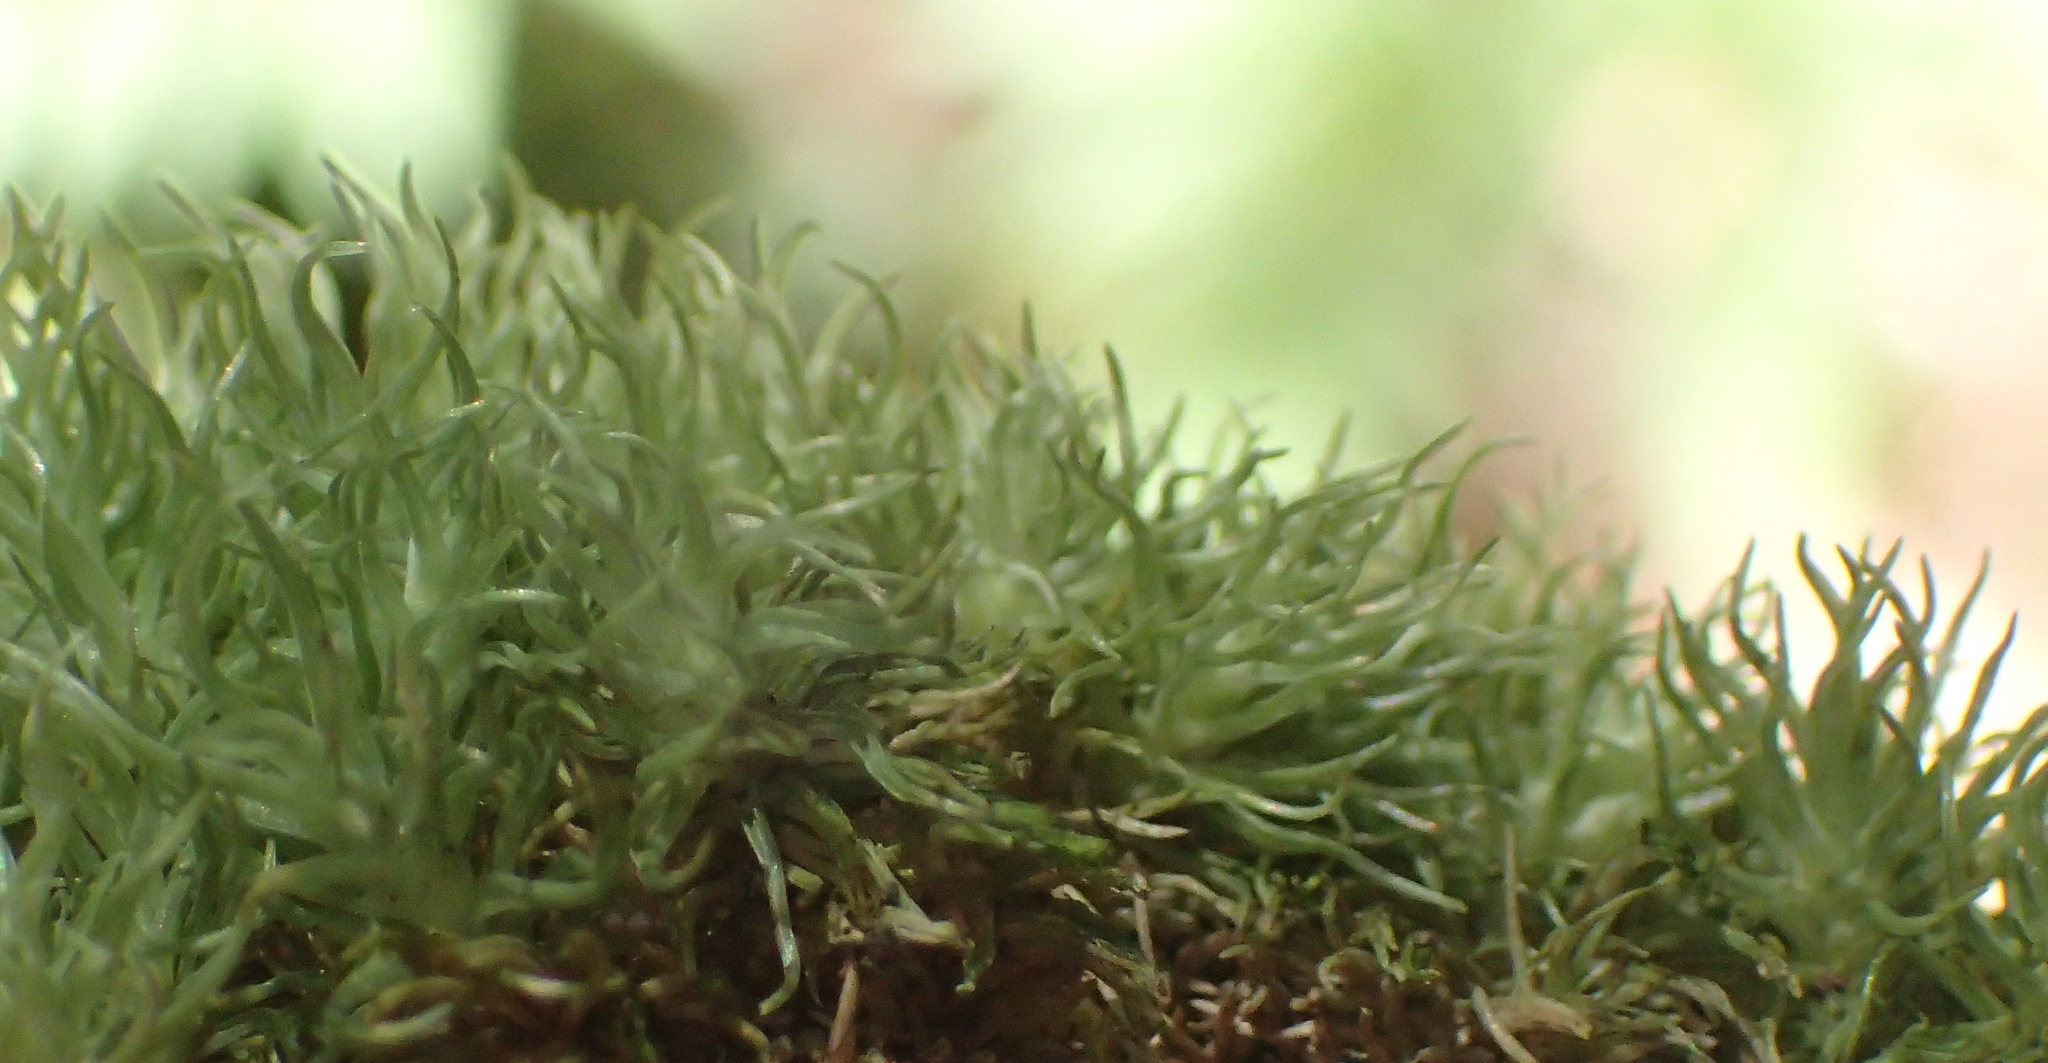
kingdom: Plantae
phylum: Bryophyta
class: Bryopsida
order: Dicranales
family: Leucobryaceae
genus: Leucobryum
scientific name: Leucobryum rehmannii
